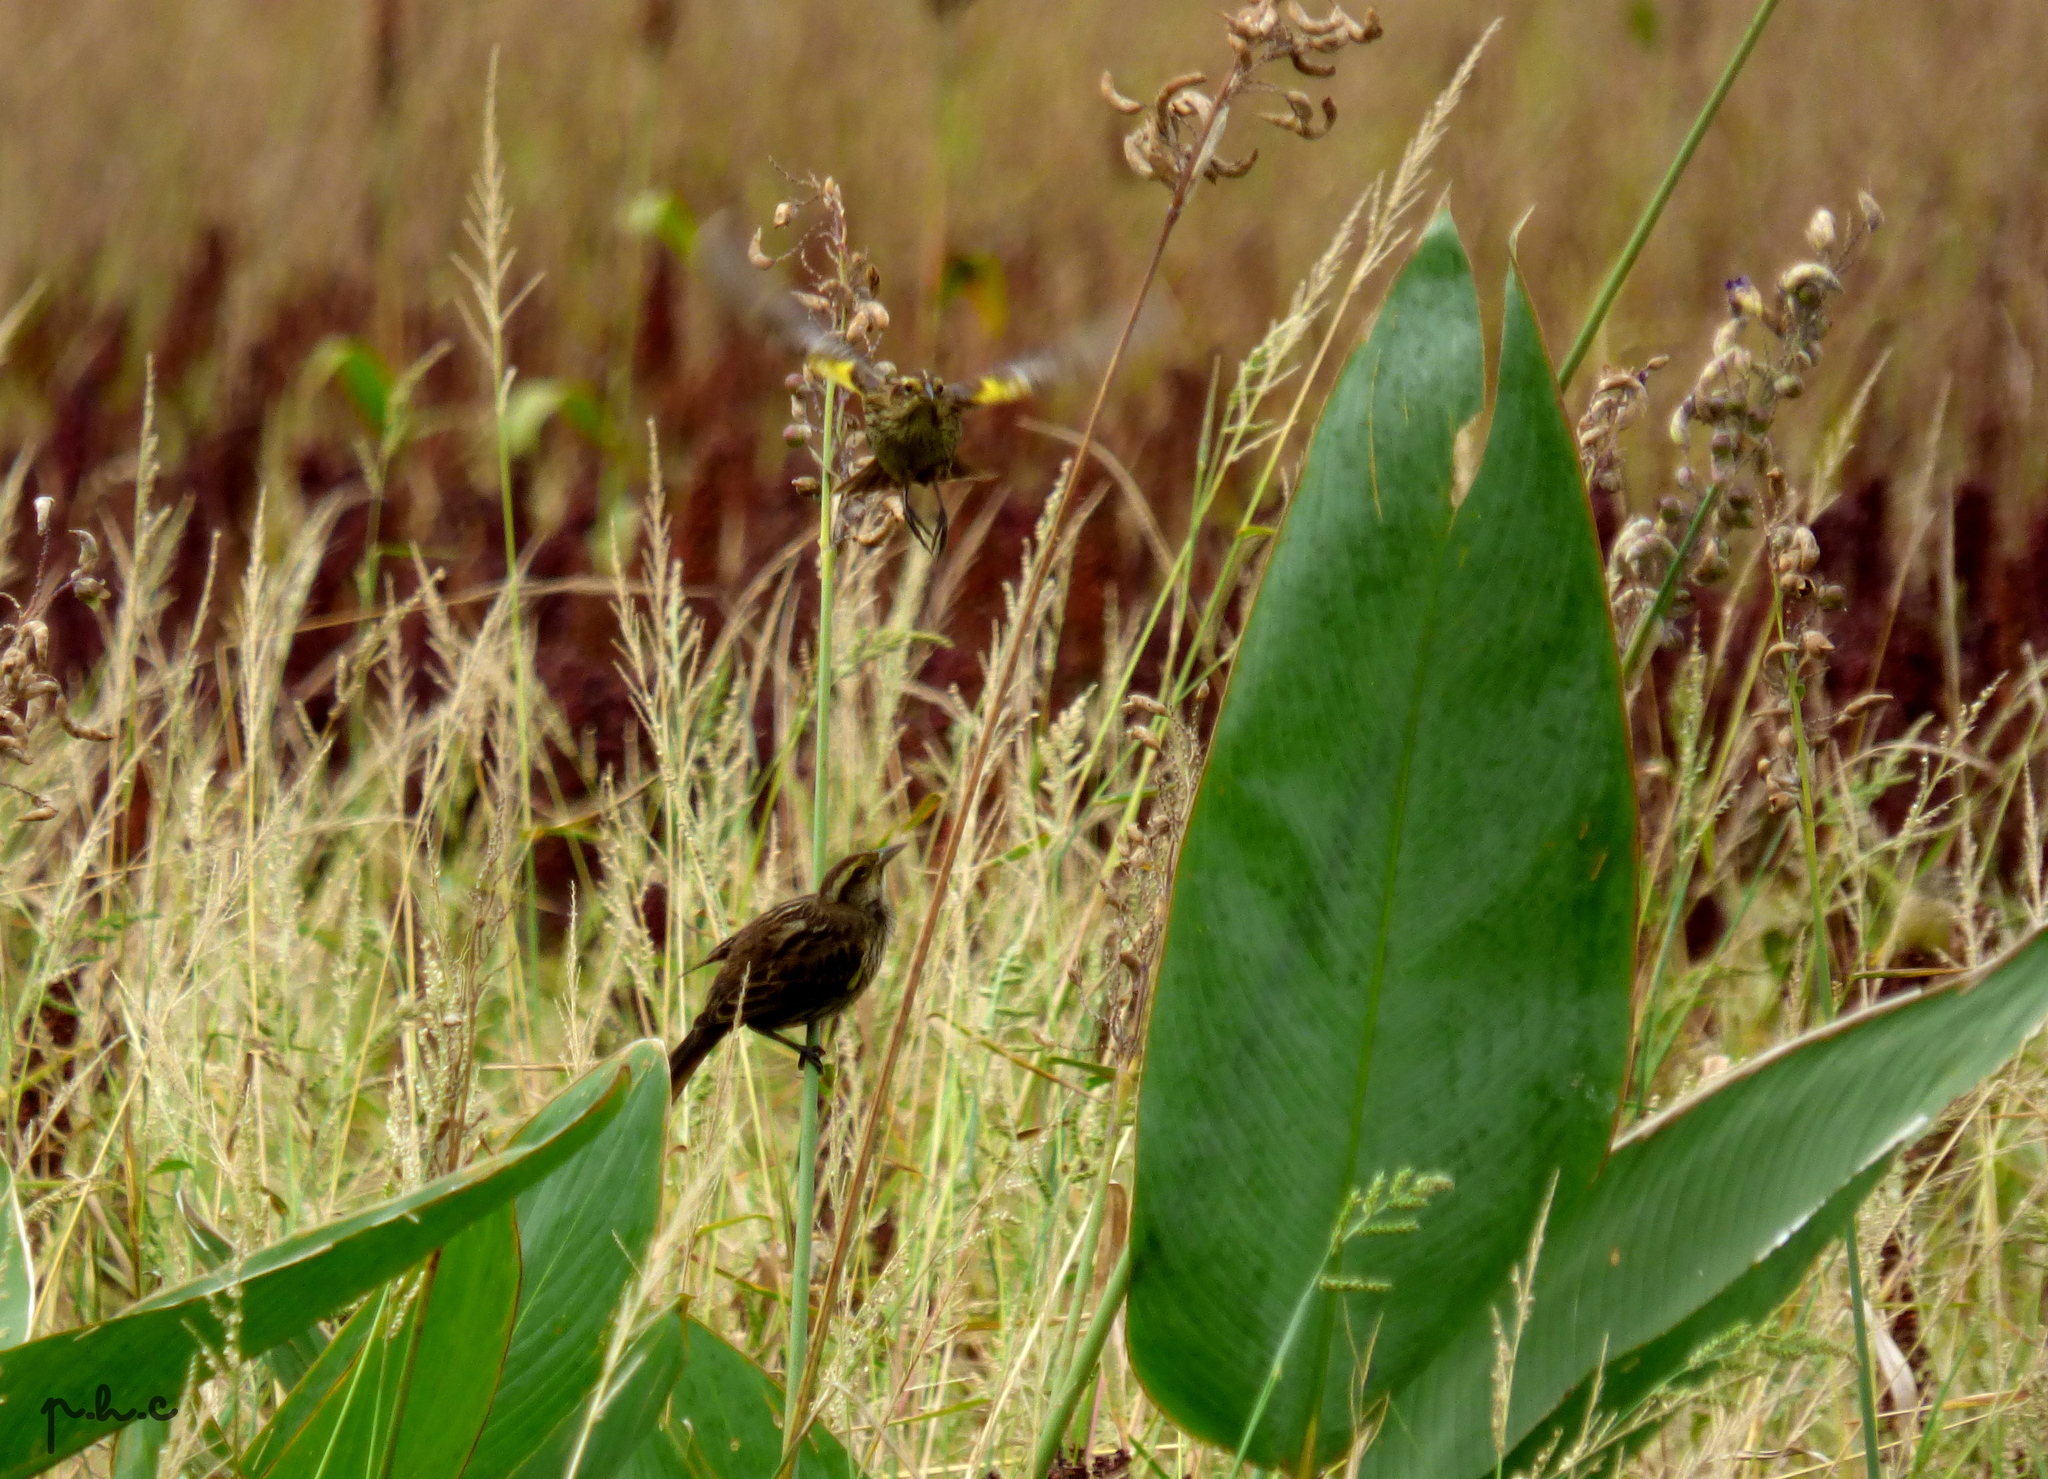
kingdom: Animalia
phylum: Chordata
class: Aves
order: Passeriformes
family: Icteridae
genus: Agelasticus
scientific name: Agelasticus thilius
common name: Yellow-winged blackbird
